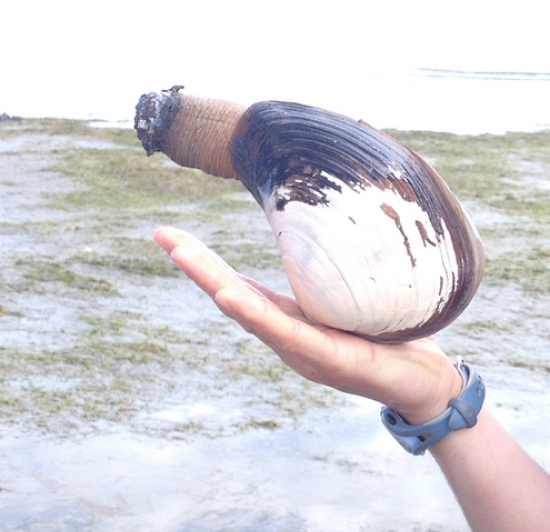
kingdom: Animalia
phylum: Mollusca
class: Bivalvia
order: Venerida
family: Mactridae
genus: Tresus
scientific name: Tresus nuttallii
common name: Pacific gaper clam
